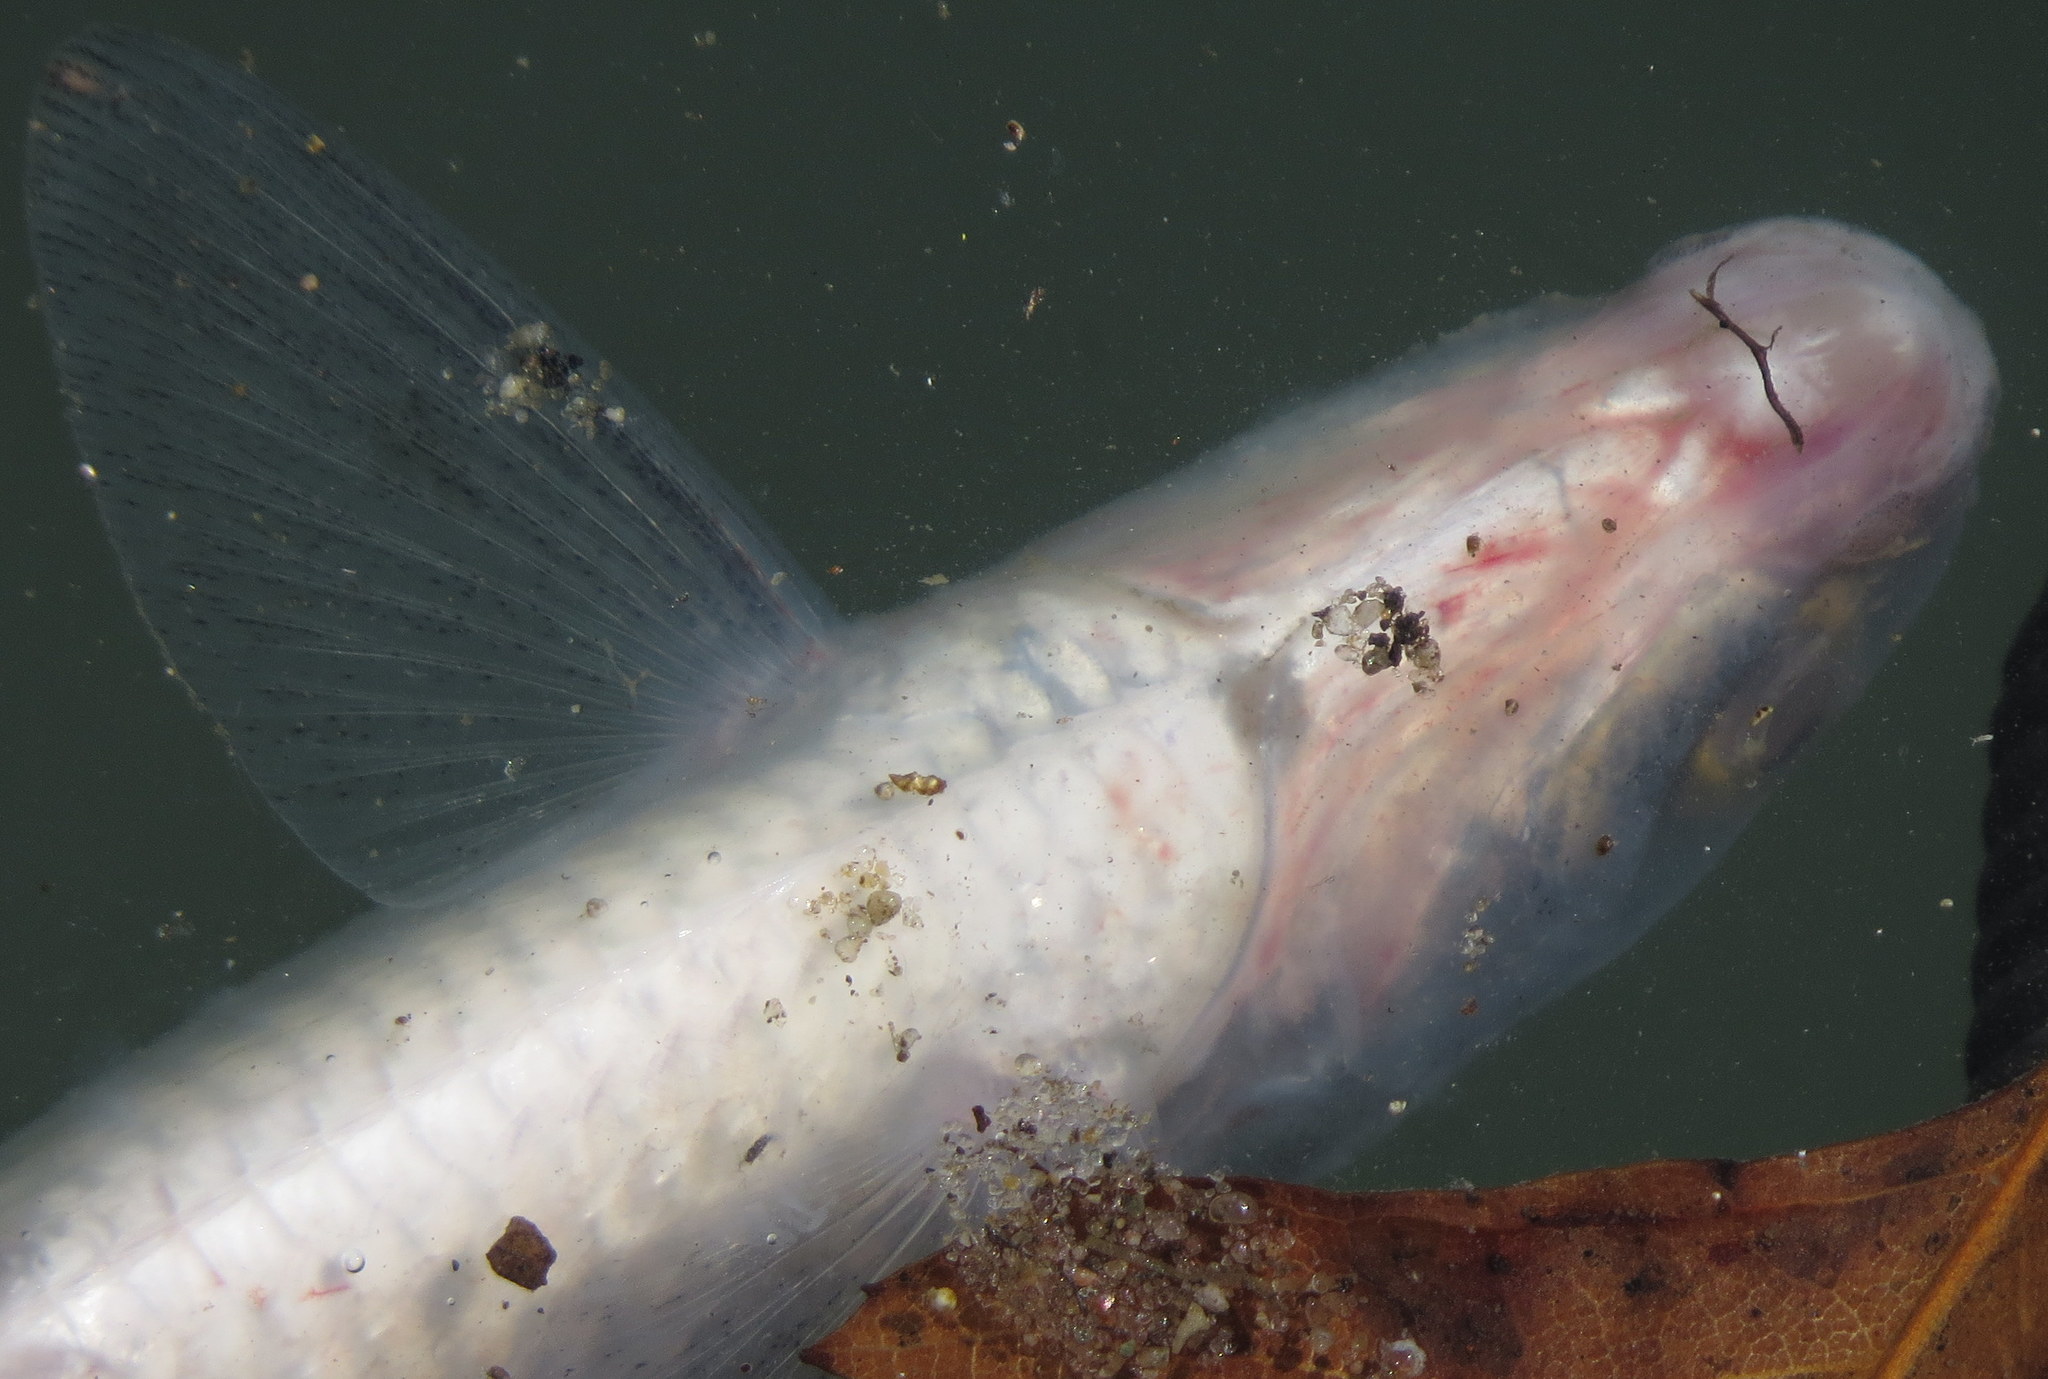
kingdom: Animalia
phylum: Chordata
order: Clupeiformes
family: Clupeidae
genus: Dorosoma
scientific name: Dorosoma cepedianum
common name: Gizzard shad
